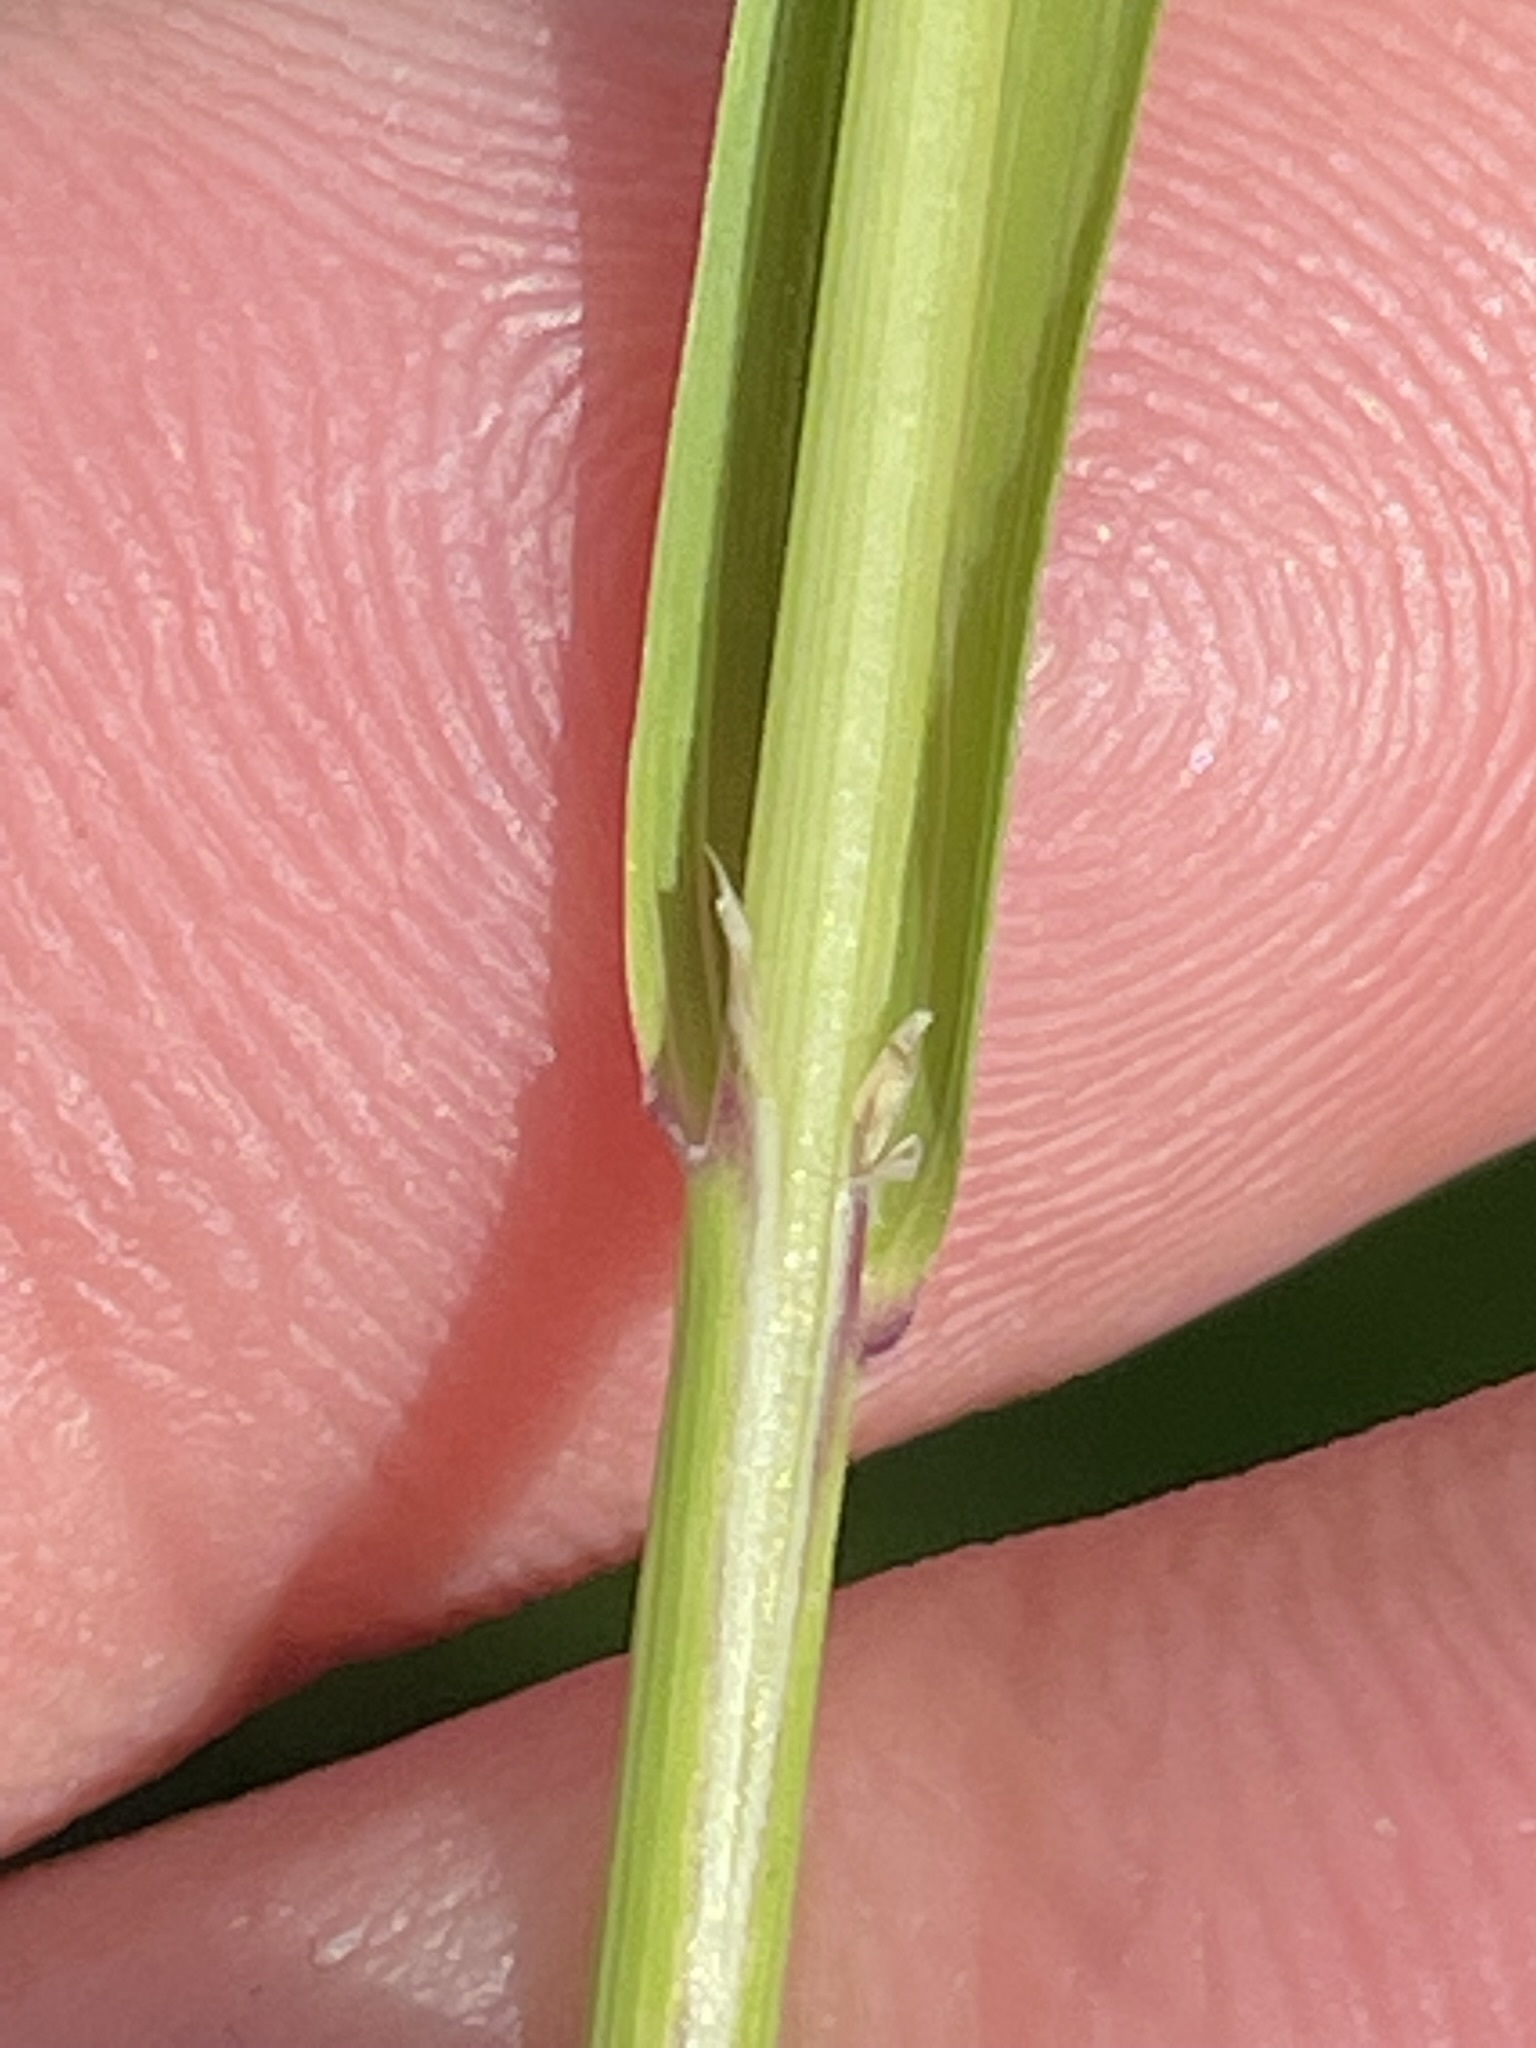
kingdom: Plantae
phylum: Tracheophyta
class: Liliopsida
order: Poales
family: Poaceae
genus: Calamagrostis
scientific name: Calamagrostis varia
